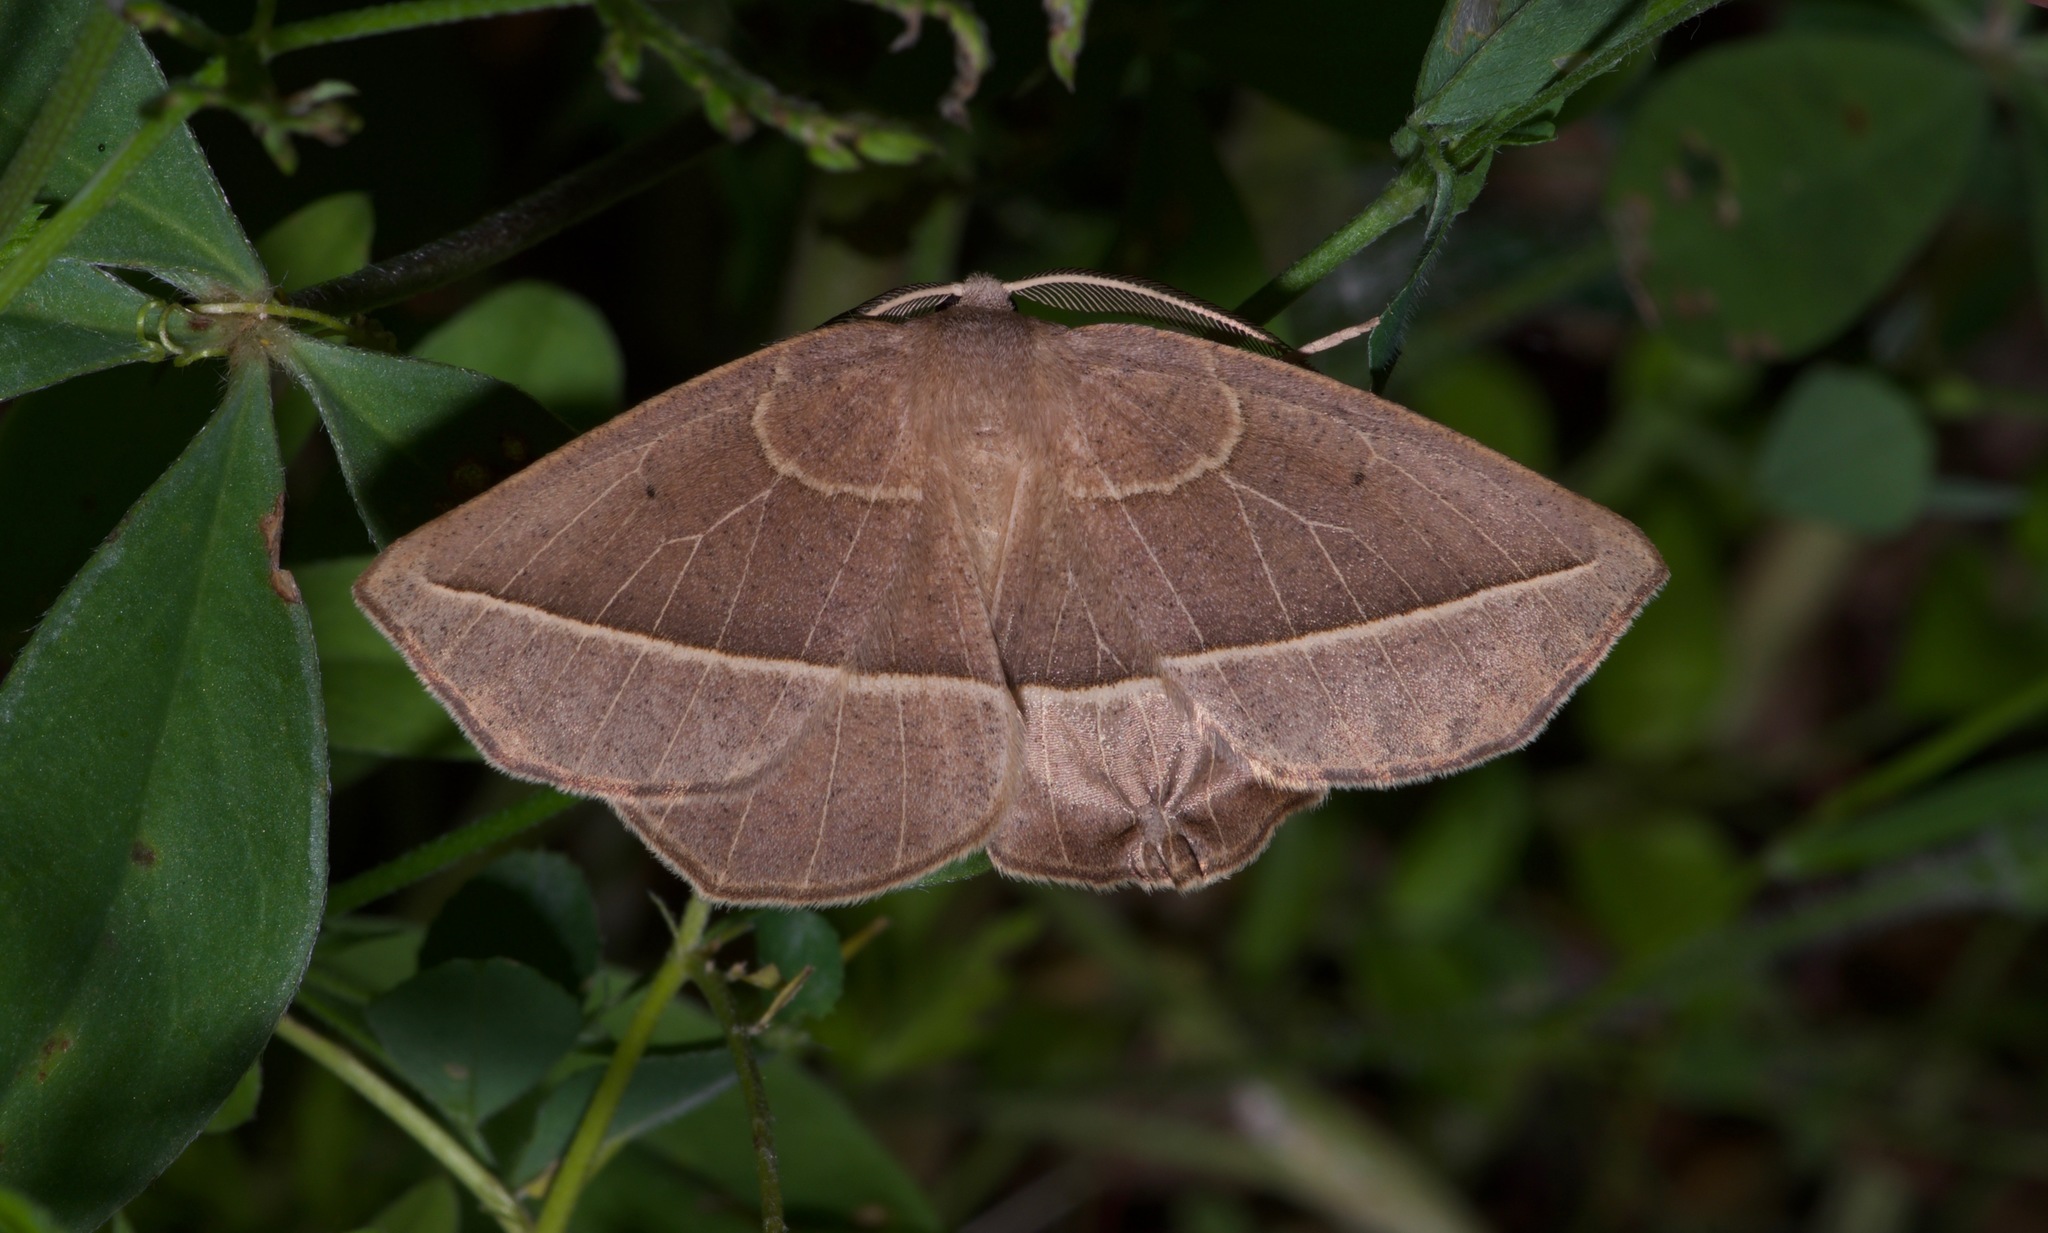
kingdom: Animalia
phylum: Arthropoda
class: Insecta
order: Lepidoptera
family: Geometridae
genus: Eusarca
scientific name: Eusarca confusaria
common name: Confused eusarca
